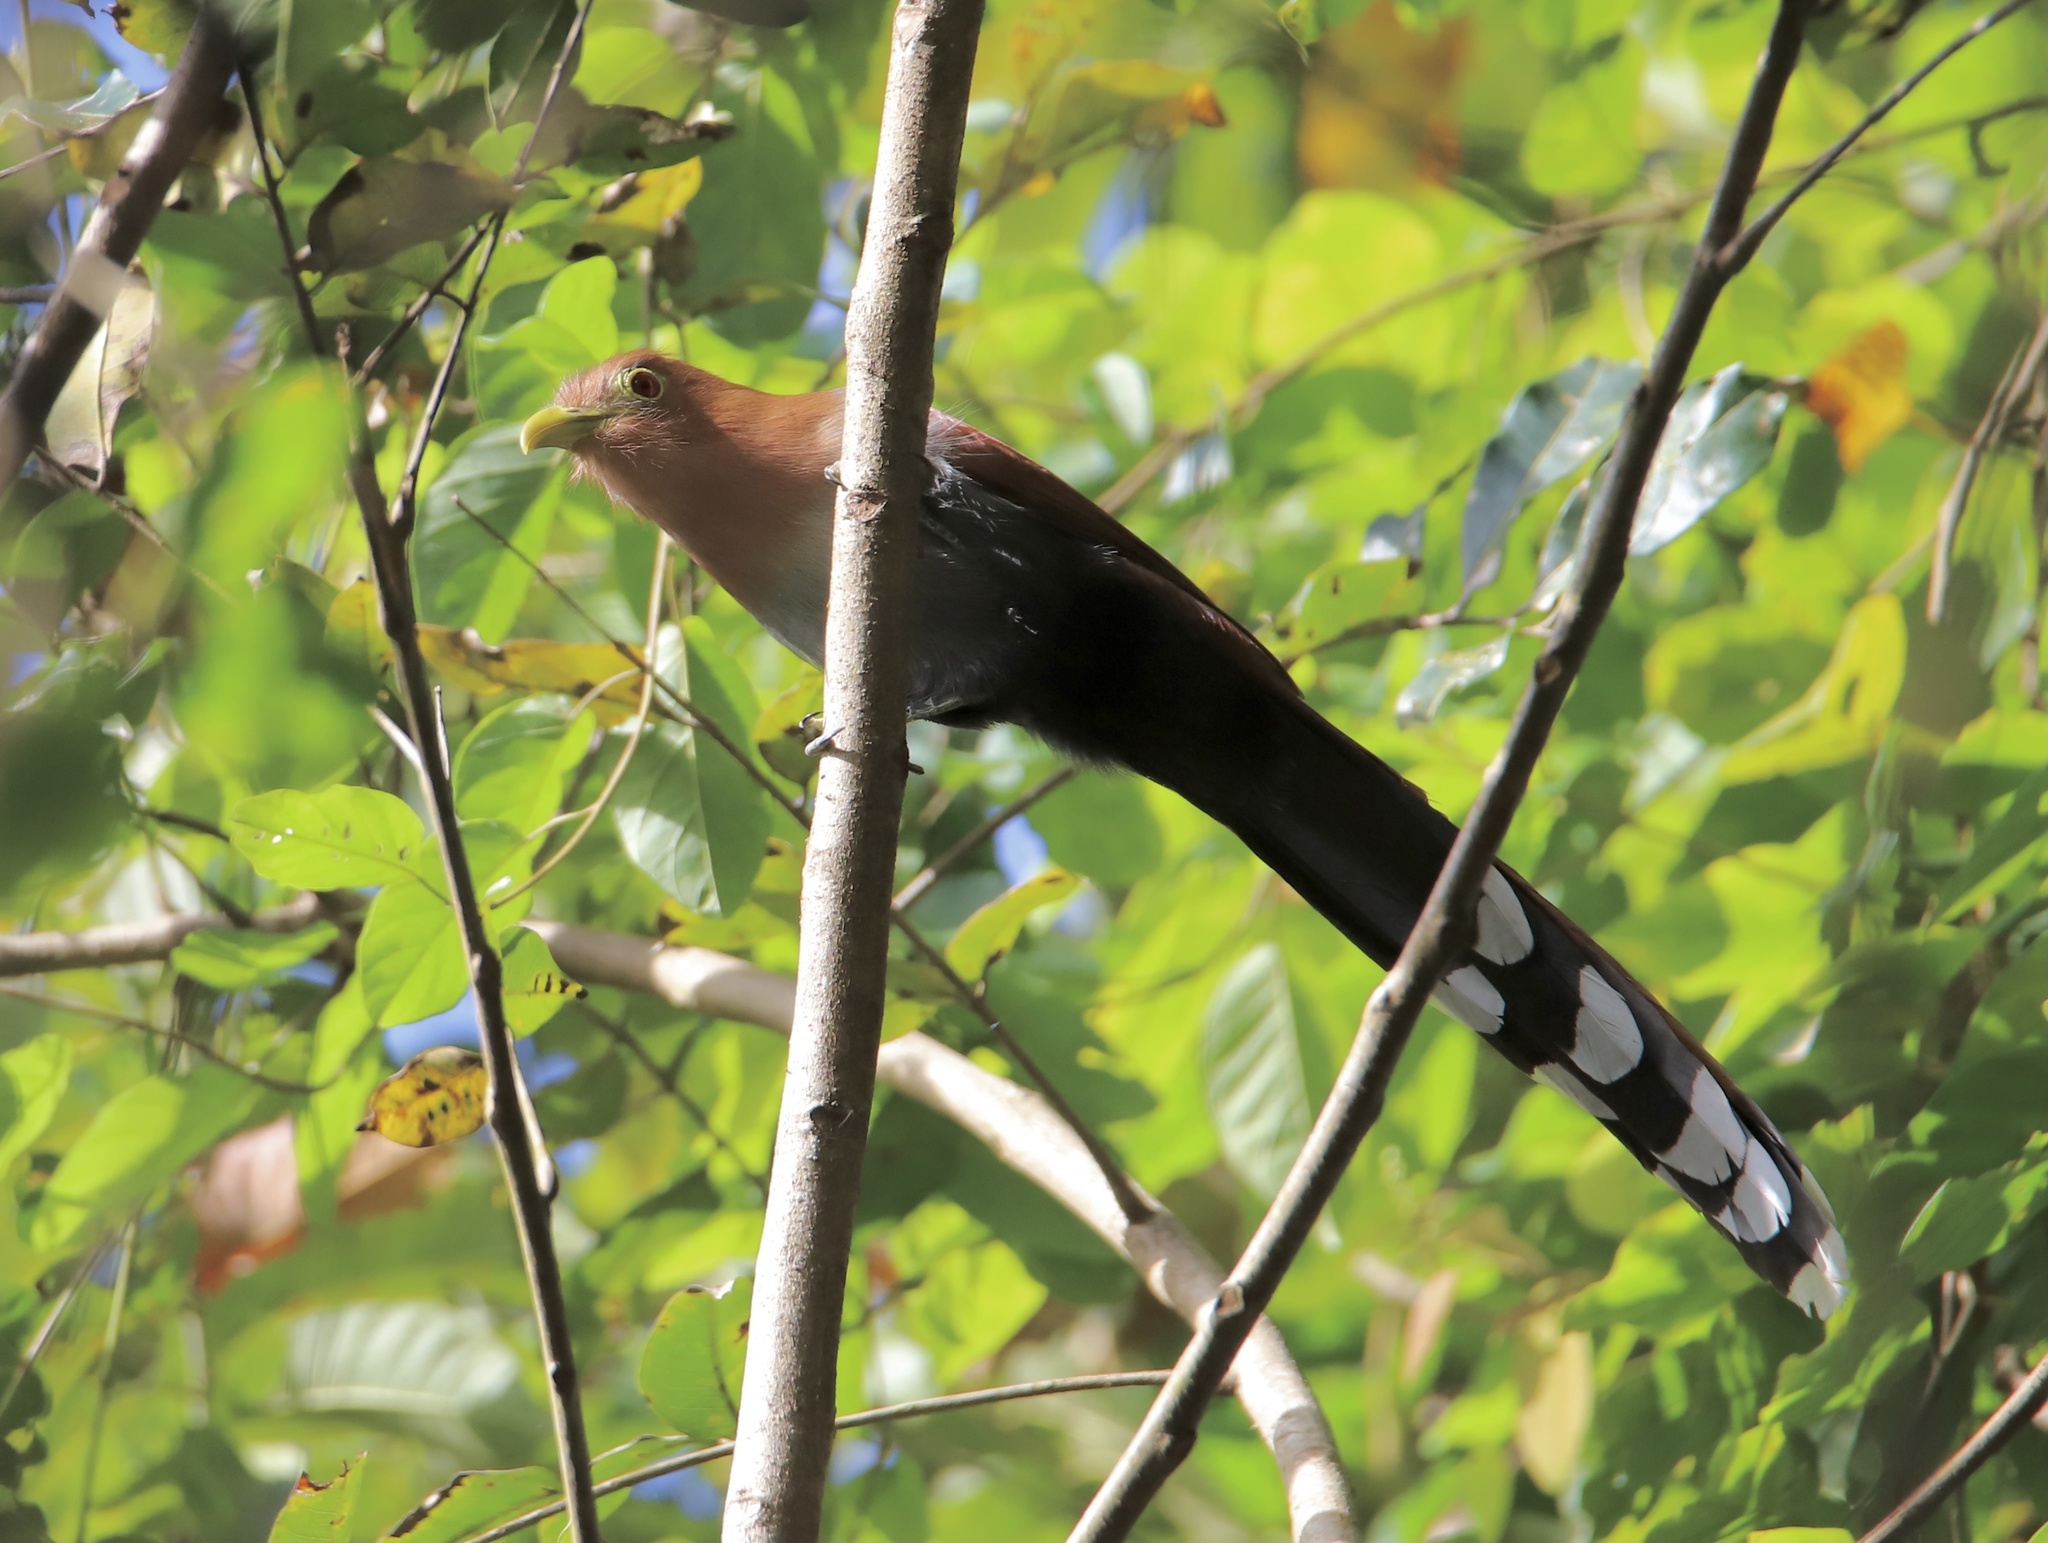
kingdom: Animalia
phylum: Chordata
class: Aves
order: Cuculiformes
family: Cuculidae
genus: Piaya
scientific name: Piaya cayana
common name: Squirrel cuckoo
